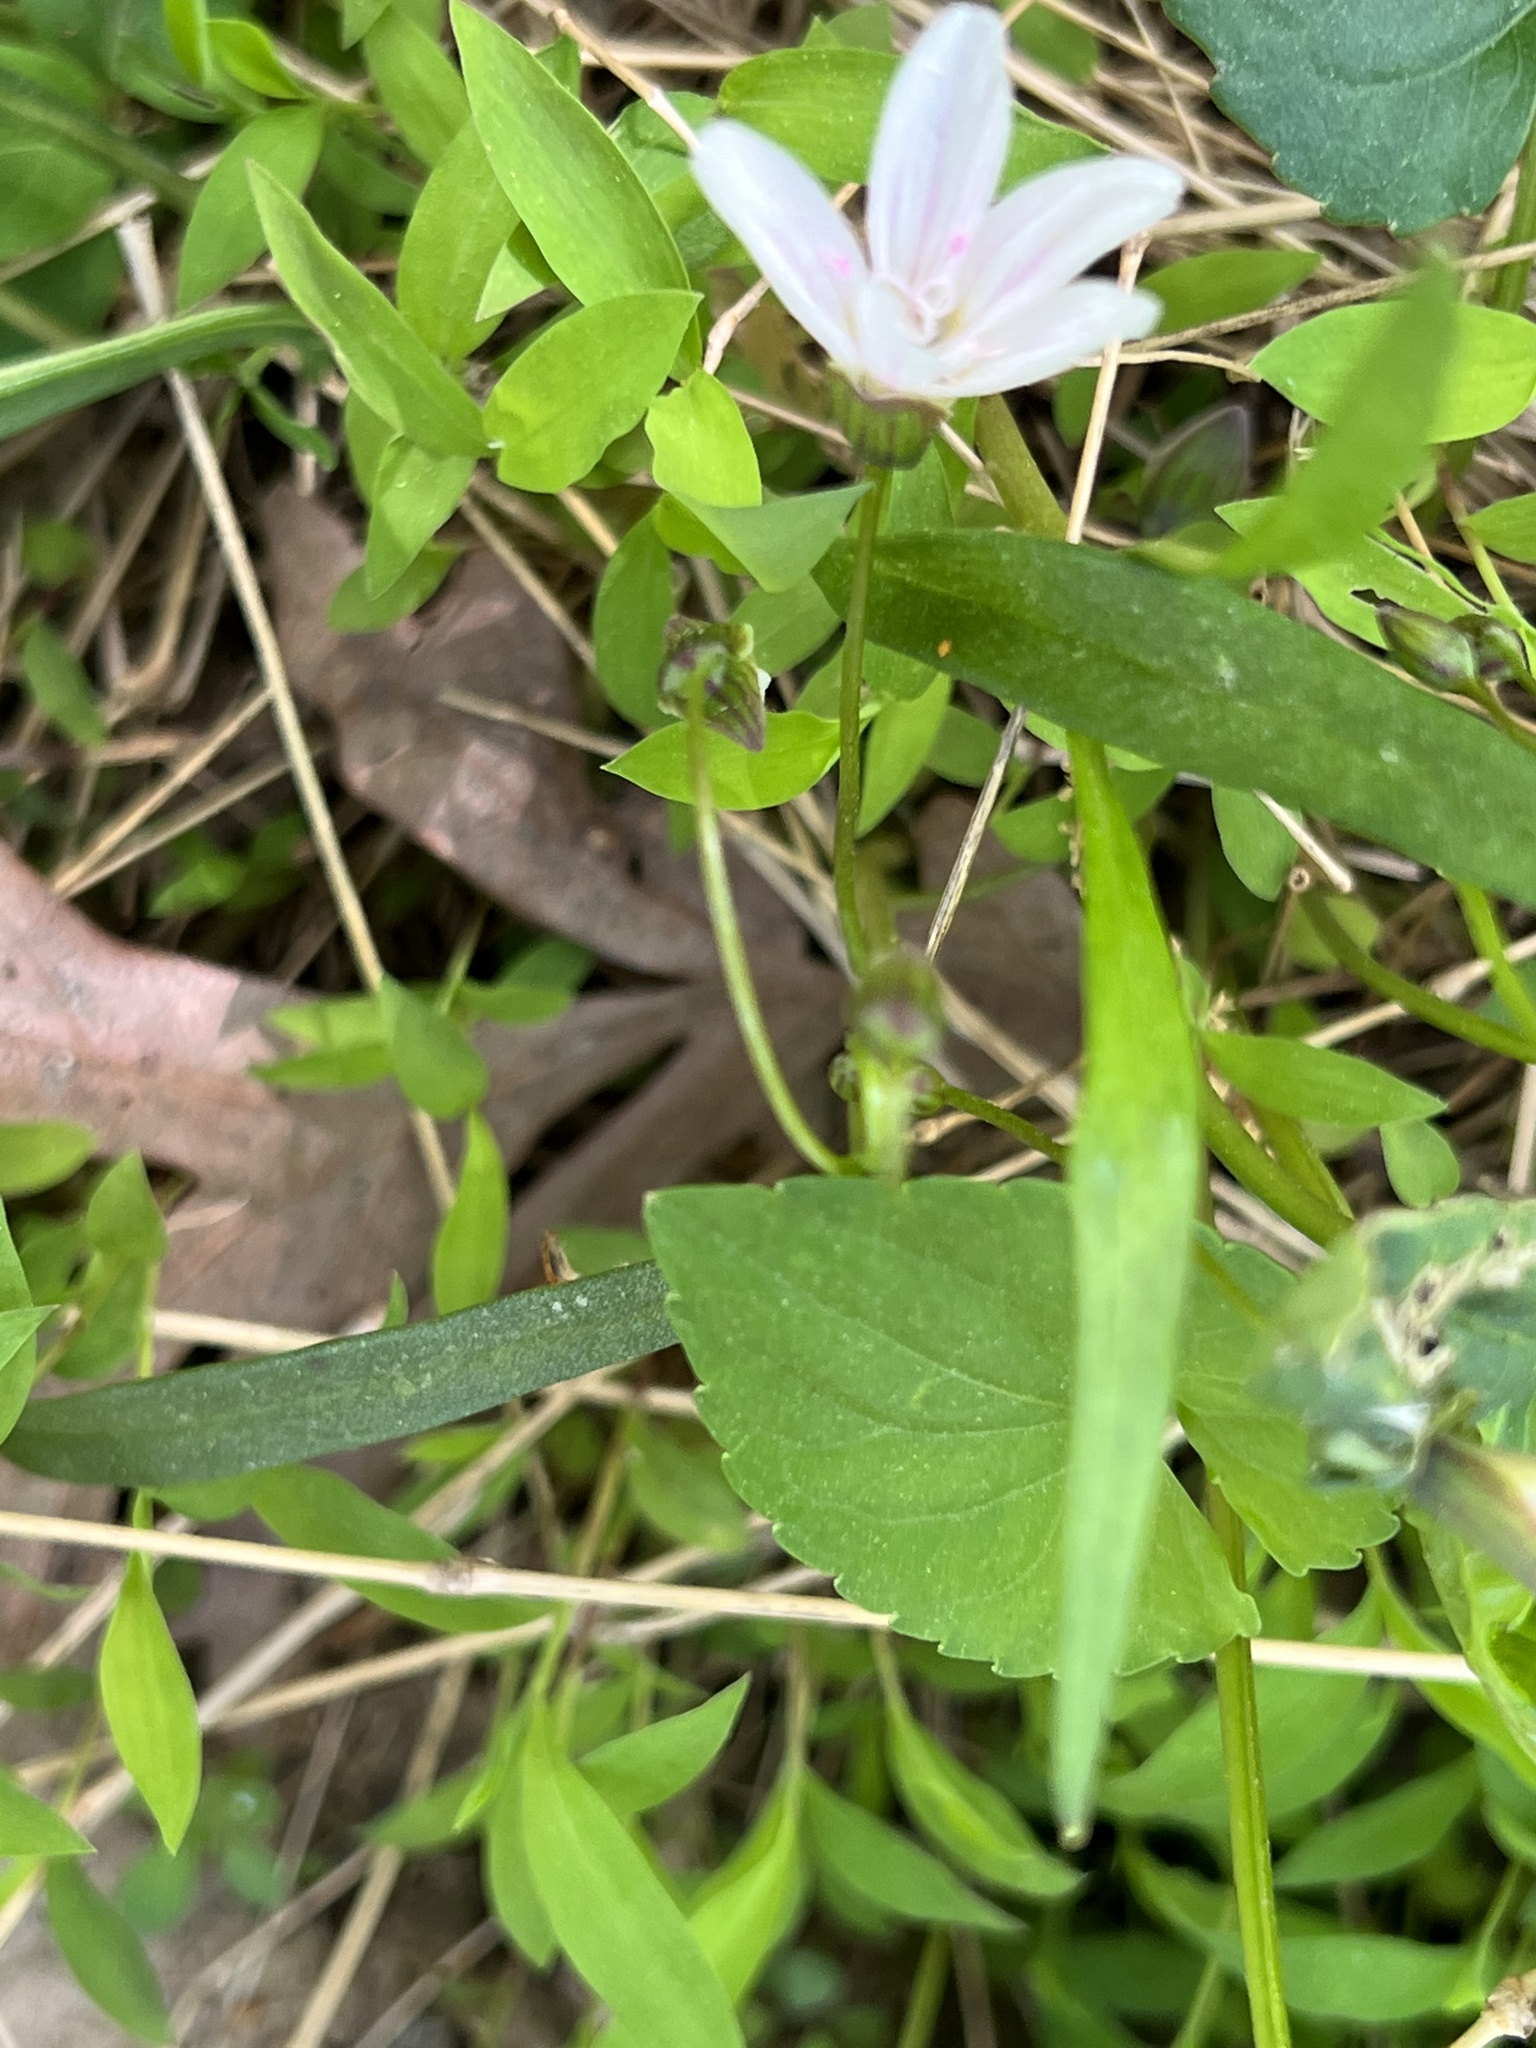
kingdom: Plantae
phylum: Tracheophyta
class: Magnoliopsida
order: Caryophyllales
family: Montiaceae
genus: Claytonia
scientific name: Claytonia virginica
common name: Virginia springbeauty
